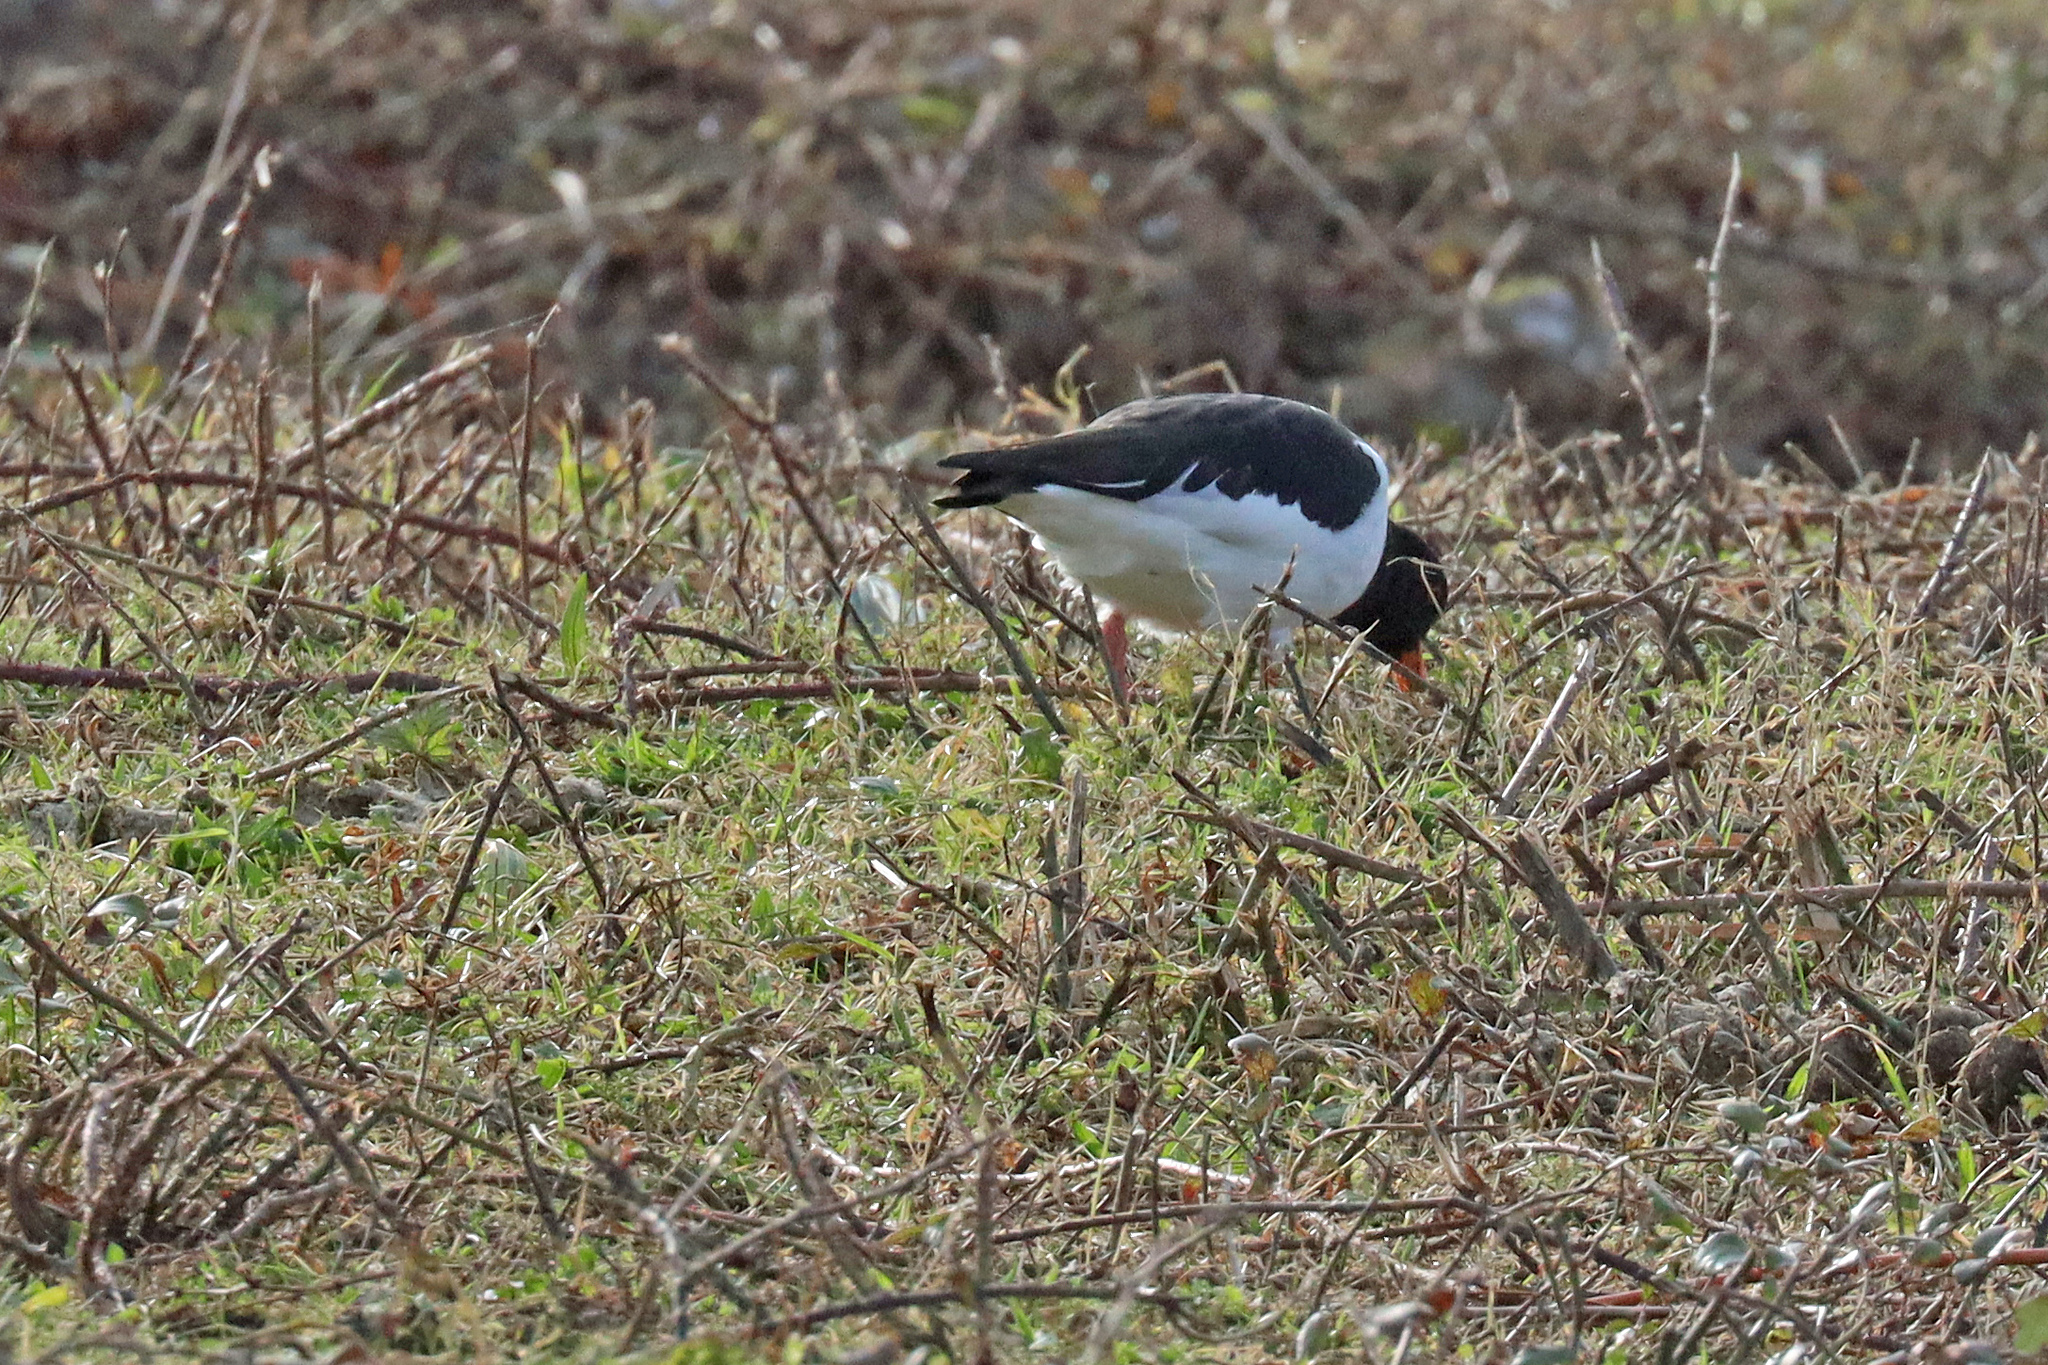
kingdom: Animalia
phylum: Chordata
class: Aves
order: Charadriiformes
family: Haematopodidae
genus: Haematopus
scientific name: Haematopus ostralegus
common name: Eurasian oystercatcher
